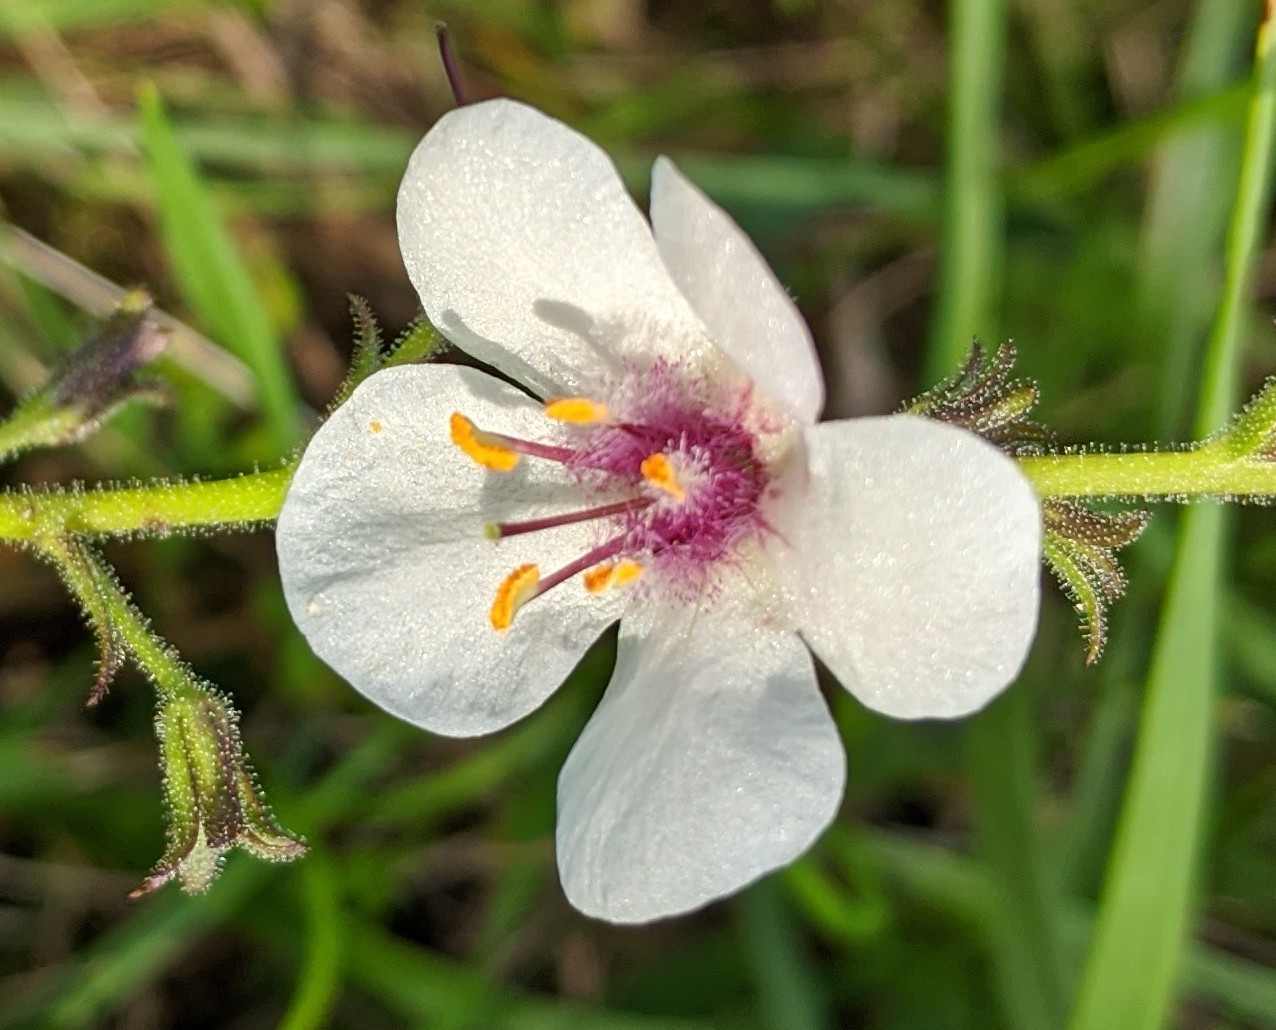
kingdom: Plantae
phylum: Tracheophyta
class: Magnoliopsida
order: Lamiales
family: Scrophulariaceae
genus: Verbascum
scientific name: Verbascum blattaria
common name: Moth mullein
